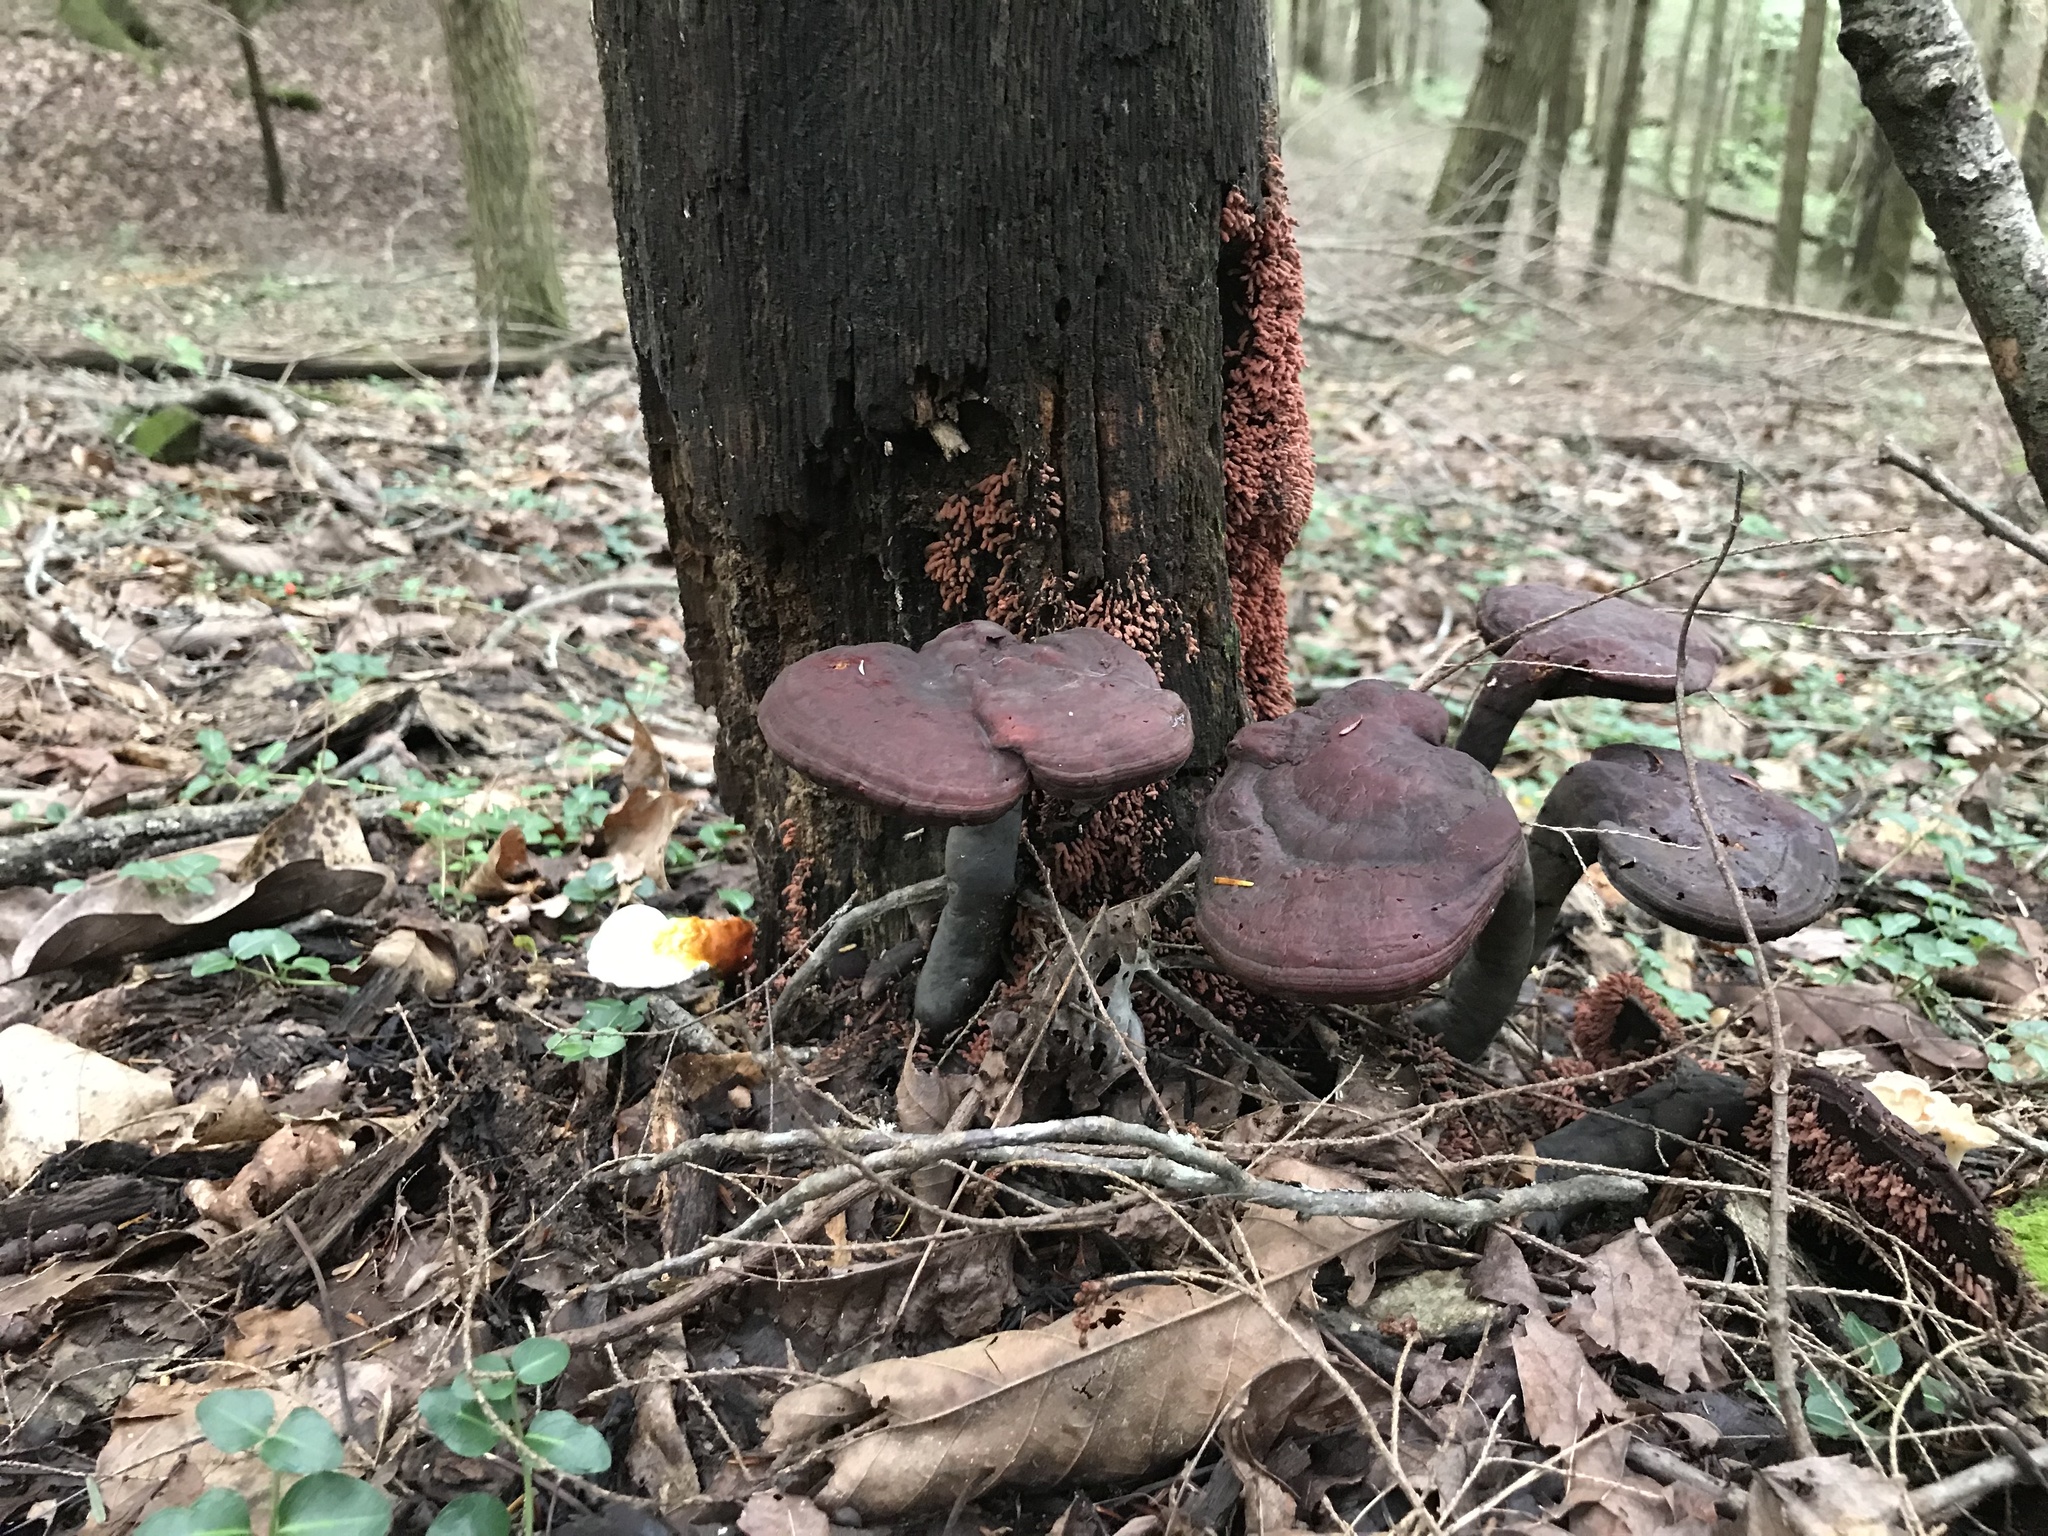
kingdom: Fungi
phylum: Basidiomycota
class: Agaricomycetes
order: Polyporales
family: Polyporaceae
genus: Ganoderma
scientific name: Ganoderma curtisii
